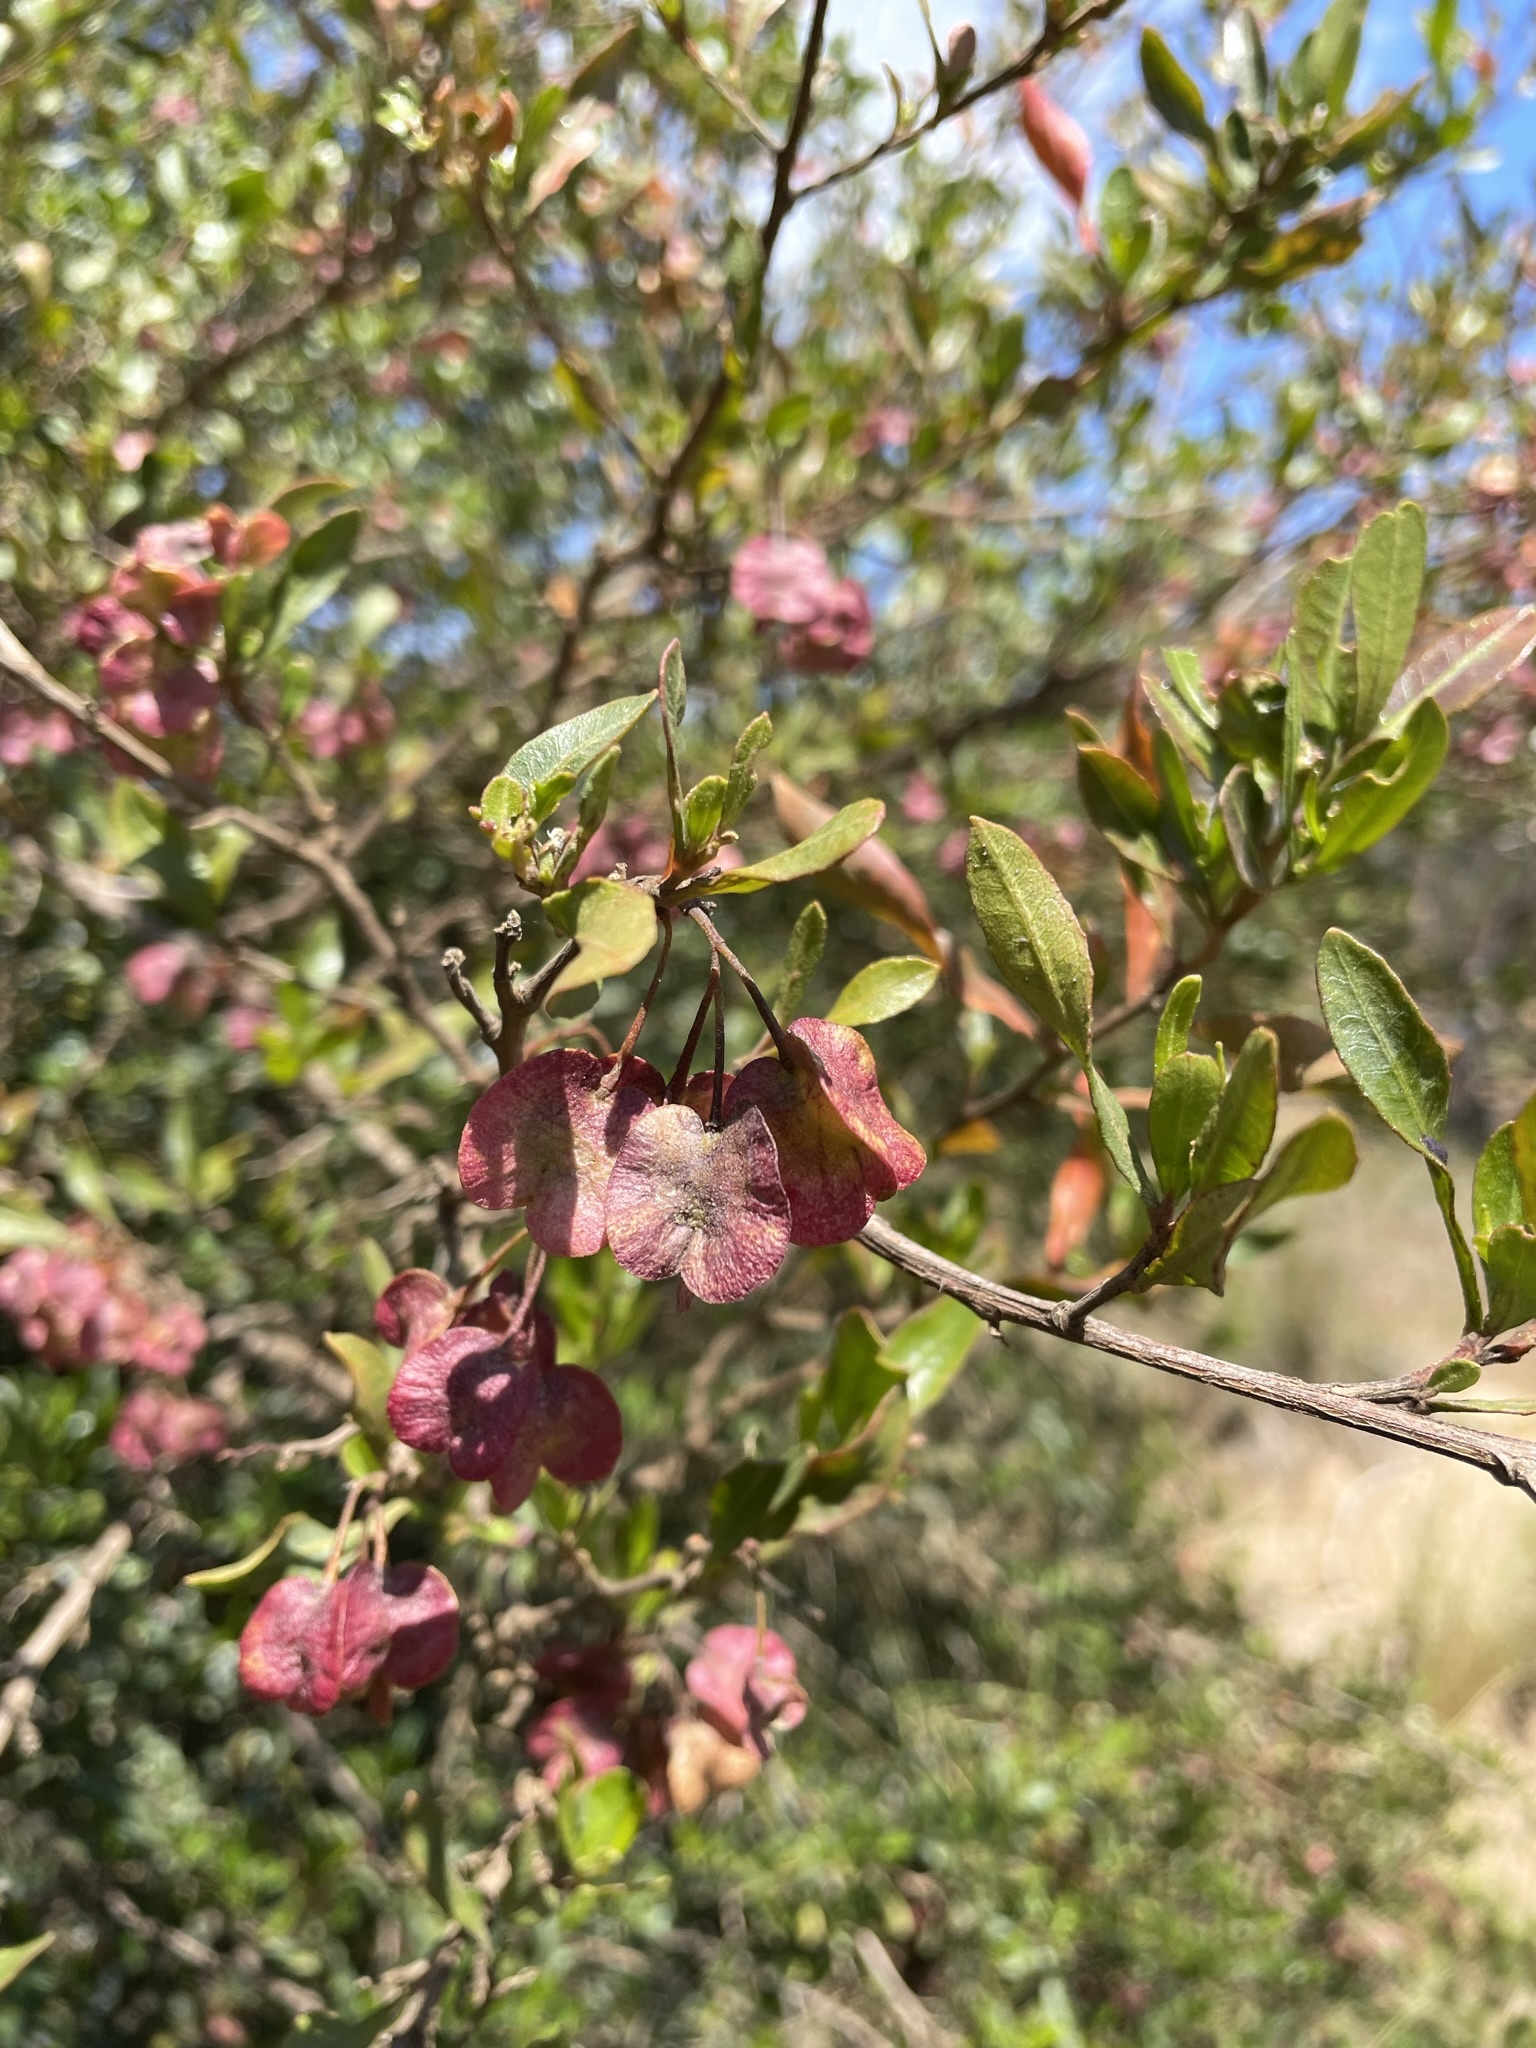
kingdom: Plantae
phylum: Tracheophyta
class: Magnoliopsida
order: Sapindales
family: Sapindaceae
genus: Dodonaea
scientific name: Dodonaea viscosa
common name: Hopbush
